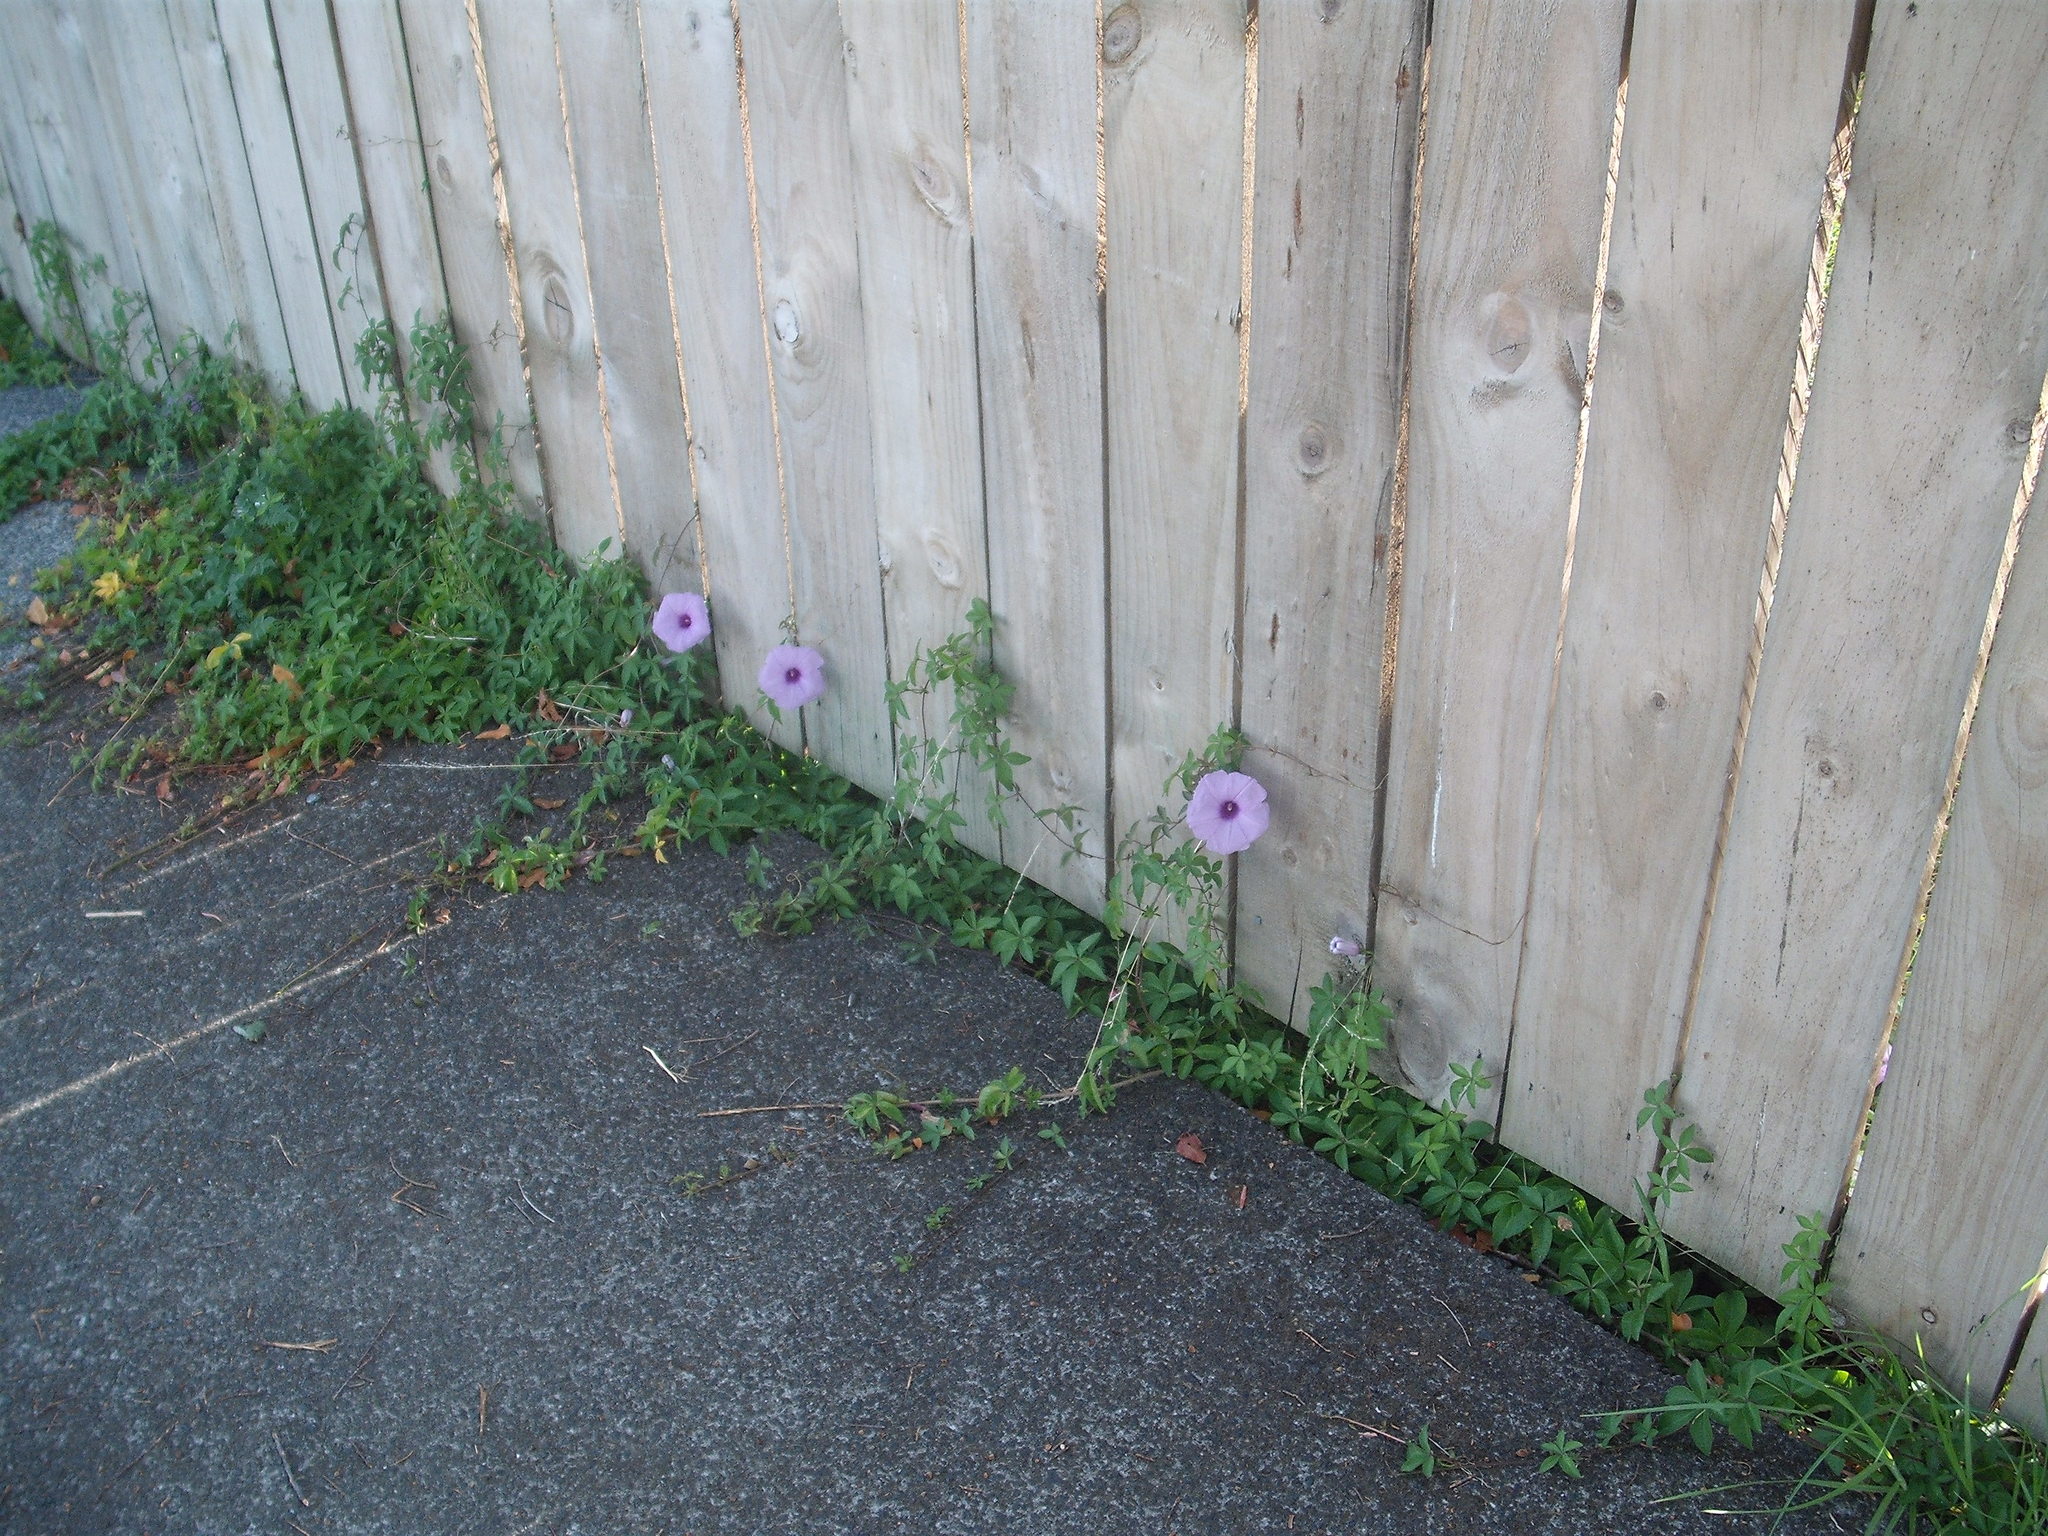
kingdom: Plantae
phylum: Tracheophyta
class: Magnoliopsida
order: Solanales
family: Convolvulaceae
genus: Ipomoea
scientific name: Ipomoea cairica
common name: Mile a minute vine
